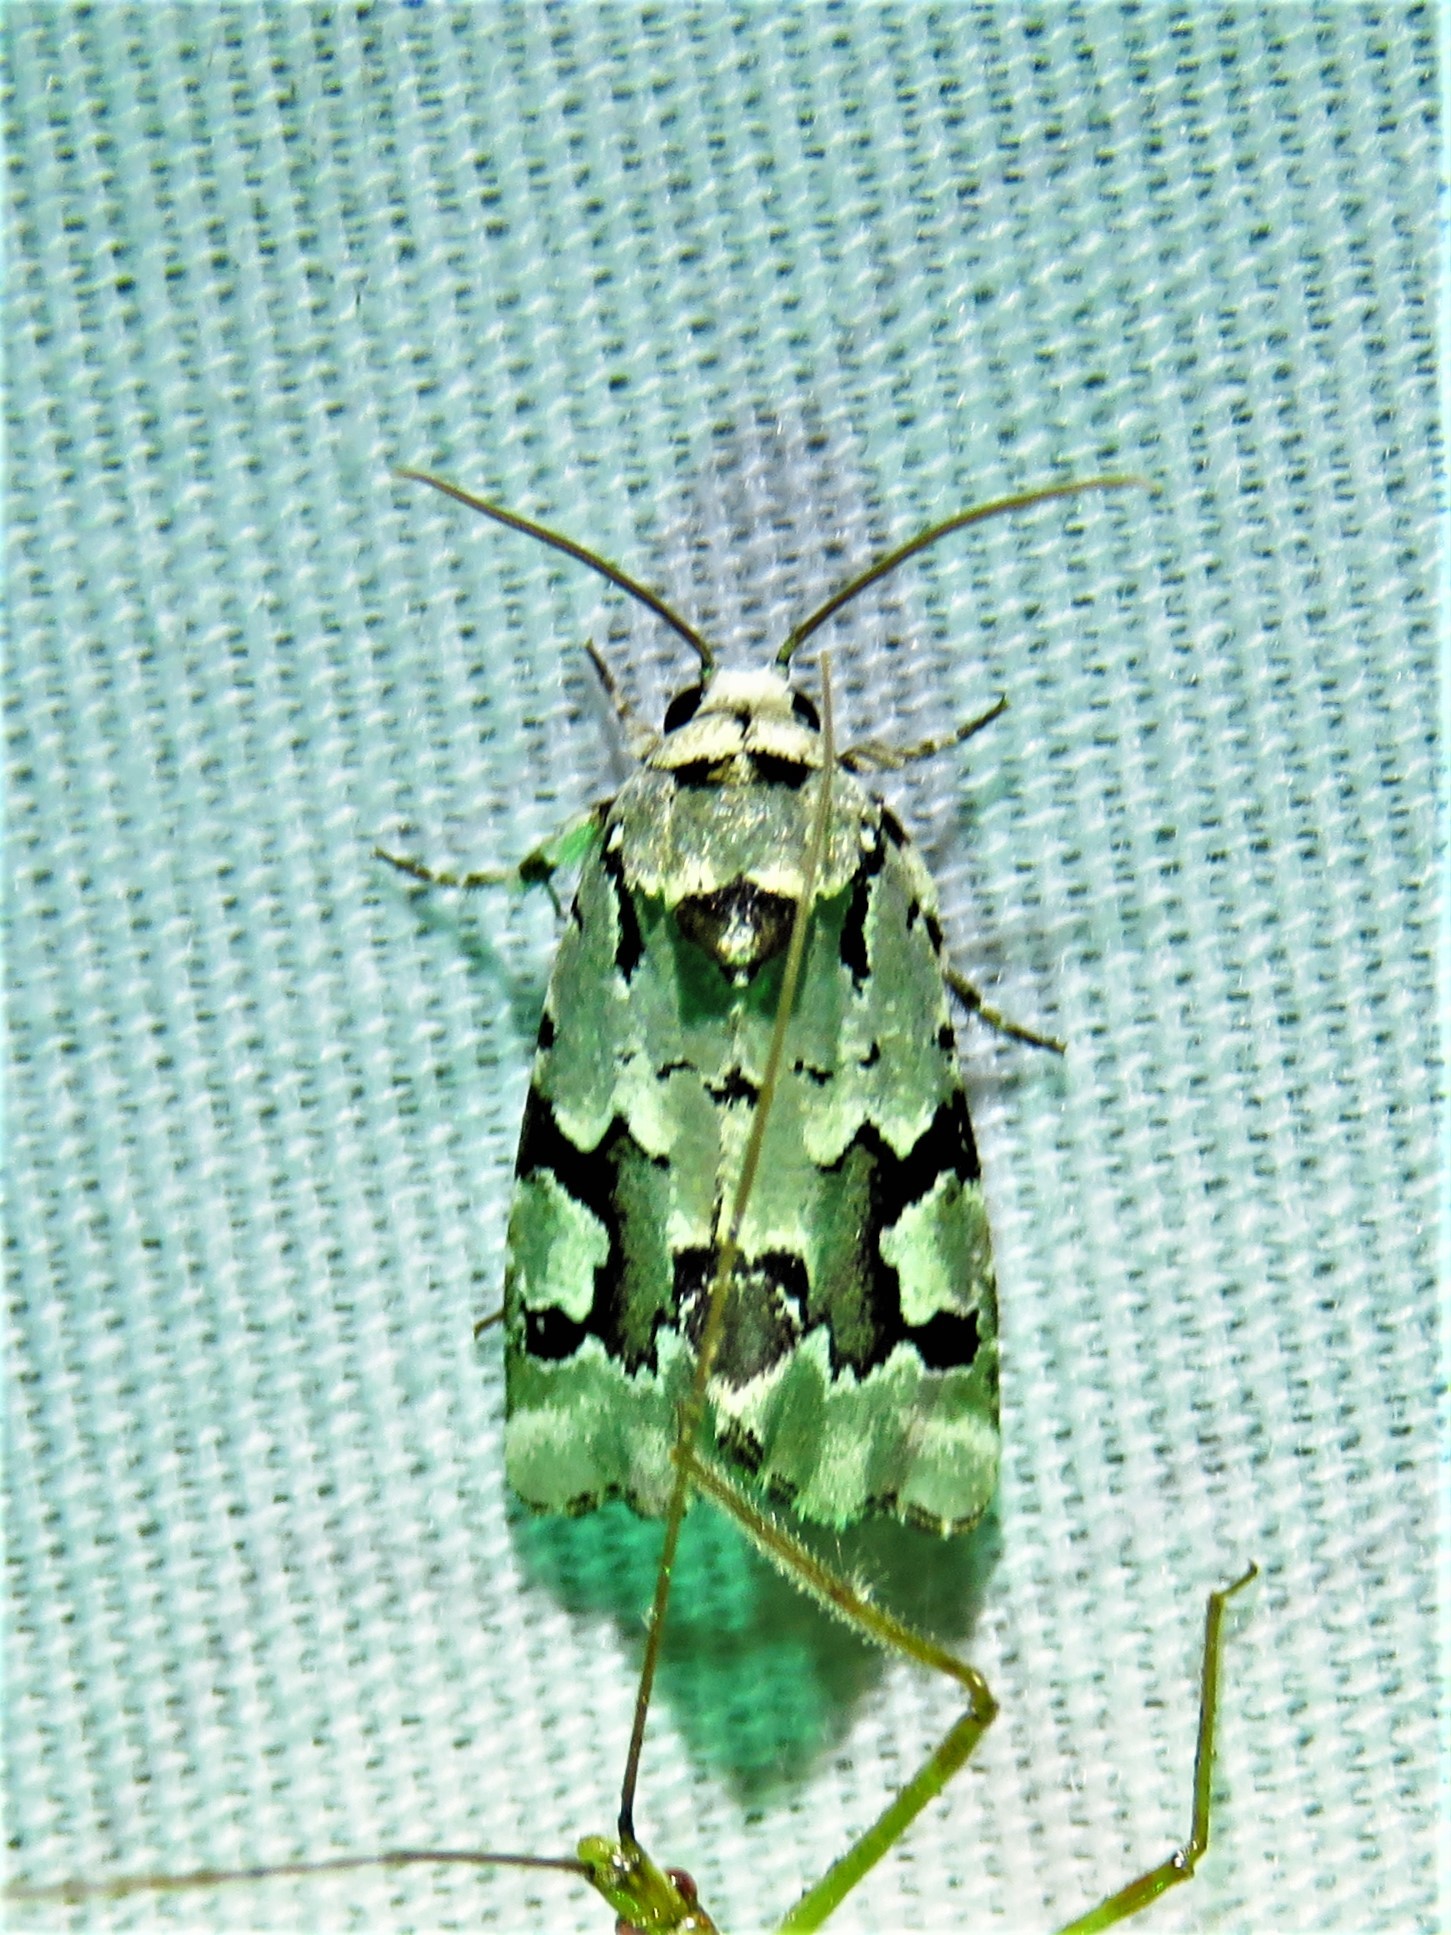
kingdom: Animalia
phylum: Arthropoda
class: Insecta
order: Lepidoptera
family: Noctuidae
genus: Emarginea
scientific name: Emarginea percara
